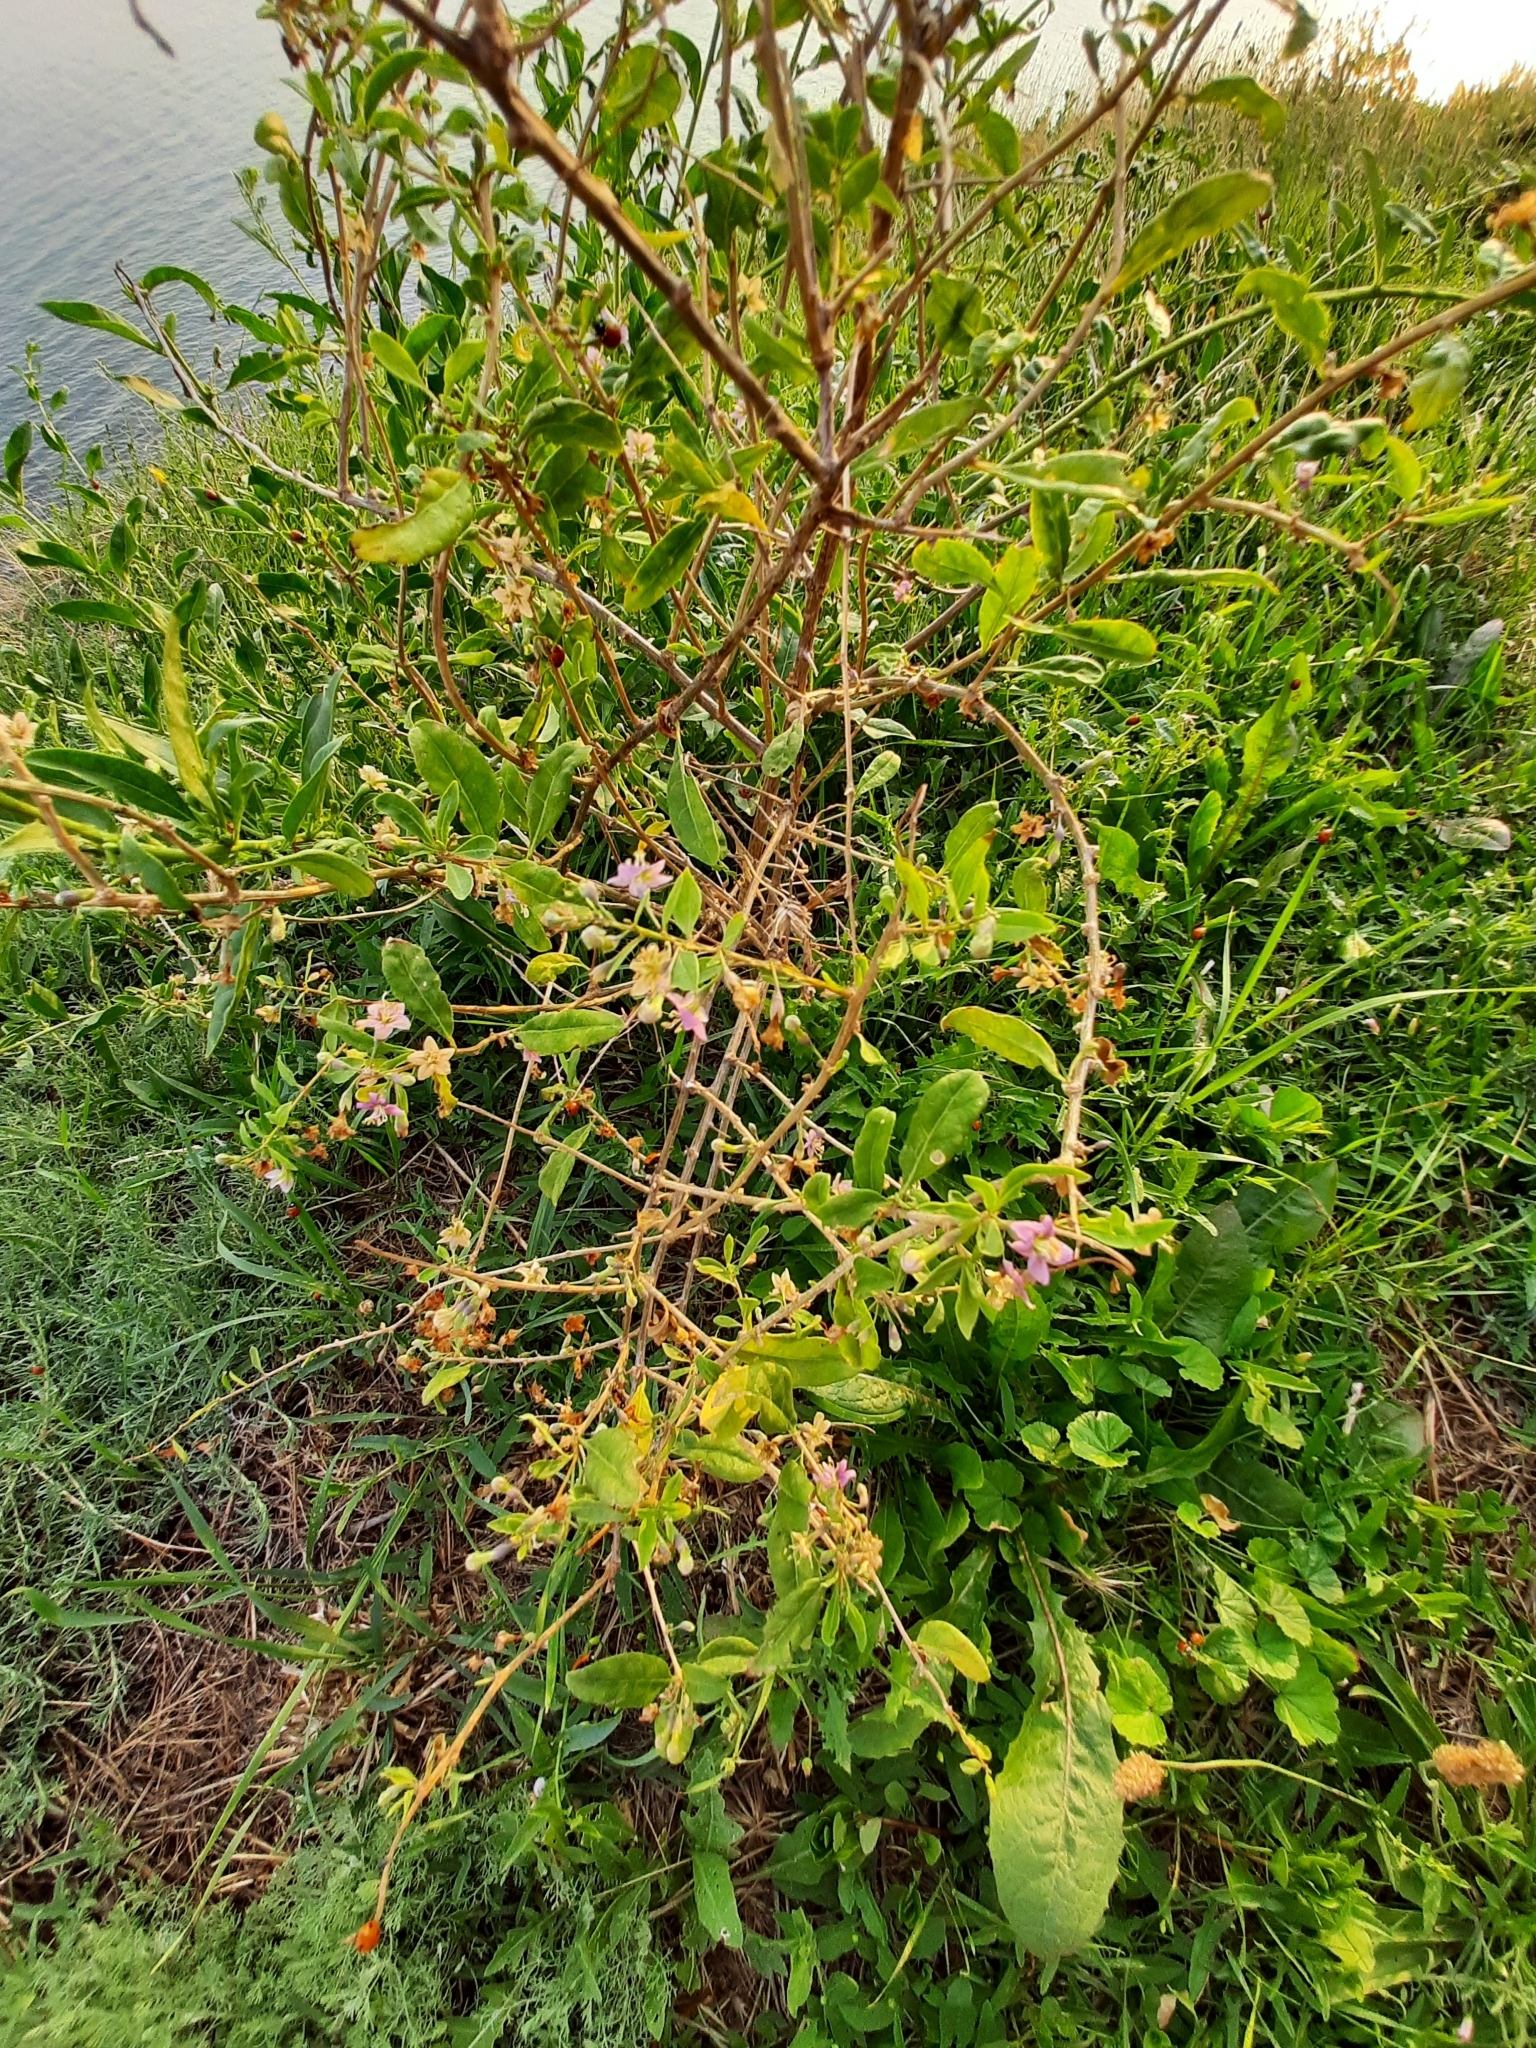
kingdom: Plantae
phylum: Tracheophyta
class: Magnoliopsida
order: Solanales
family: Solanaceae
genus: Lycium
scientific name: Lycium barbarum
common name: Duke of argyll's teaplant
